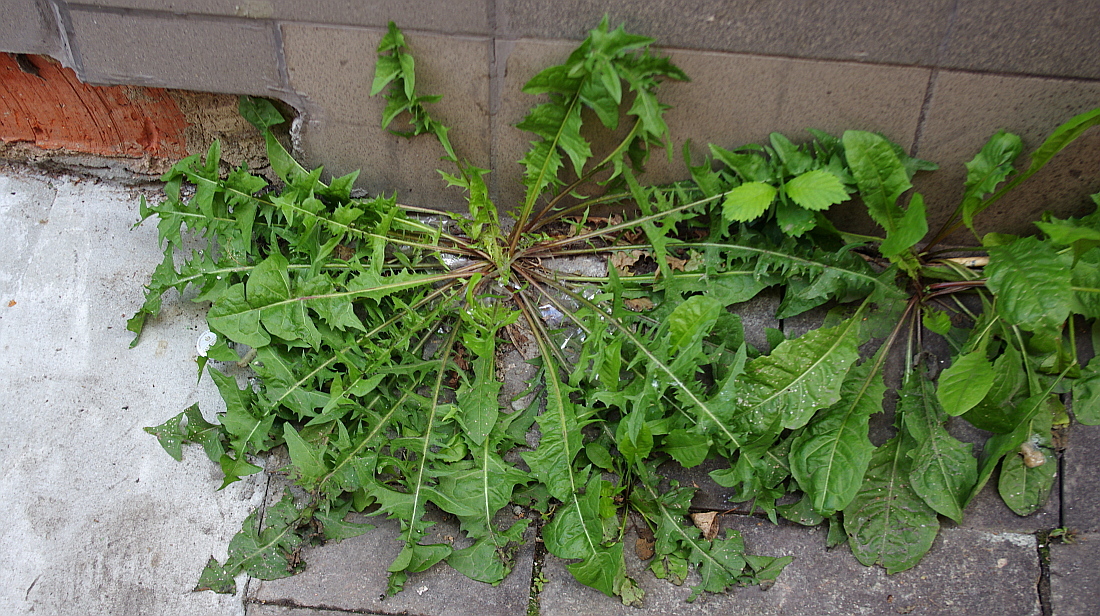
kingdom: Plantae
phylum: Tracheophyta
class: Magnoliopsida
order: Asterales
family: Asteraceae
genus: Taraxacum
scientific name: Taraxacum officinale
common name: Common dandelion
